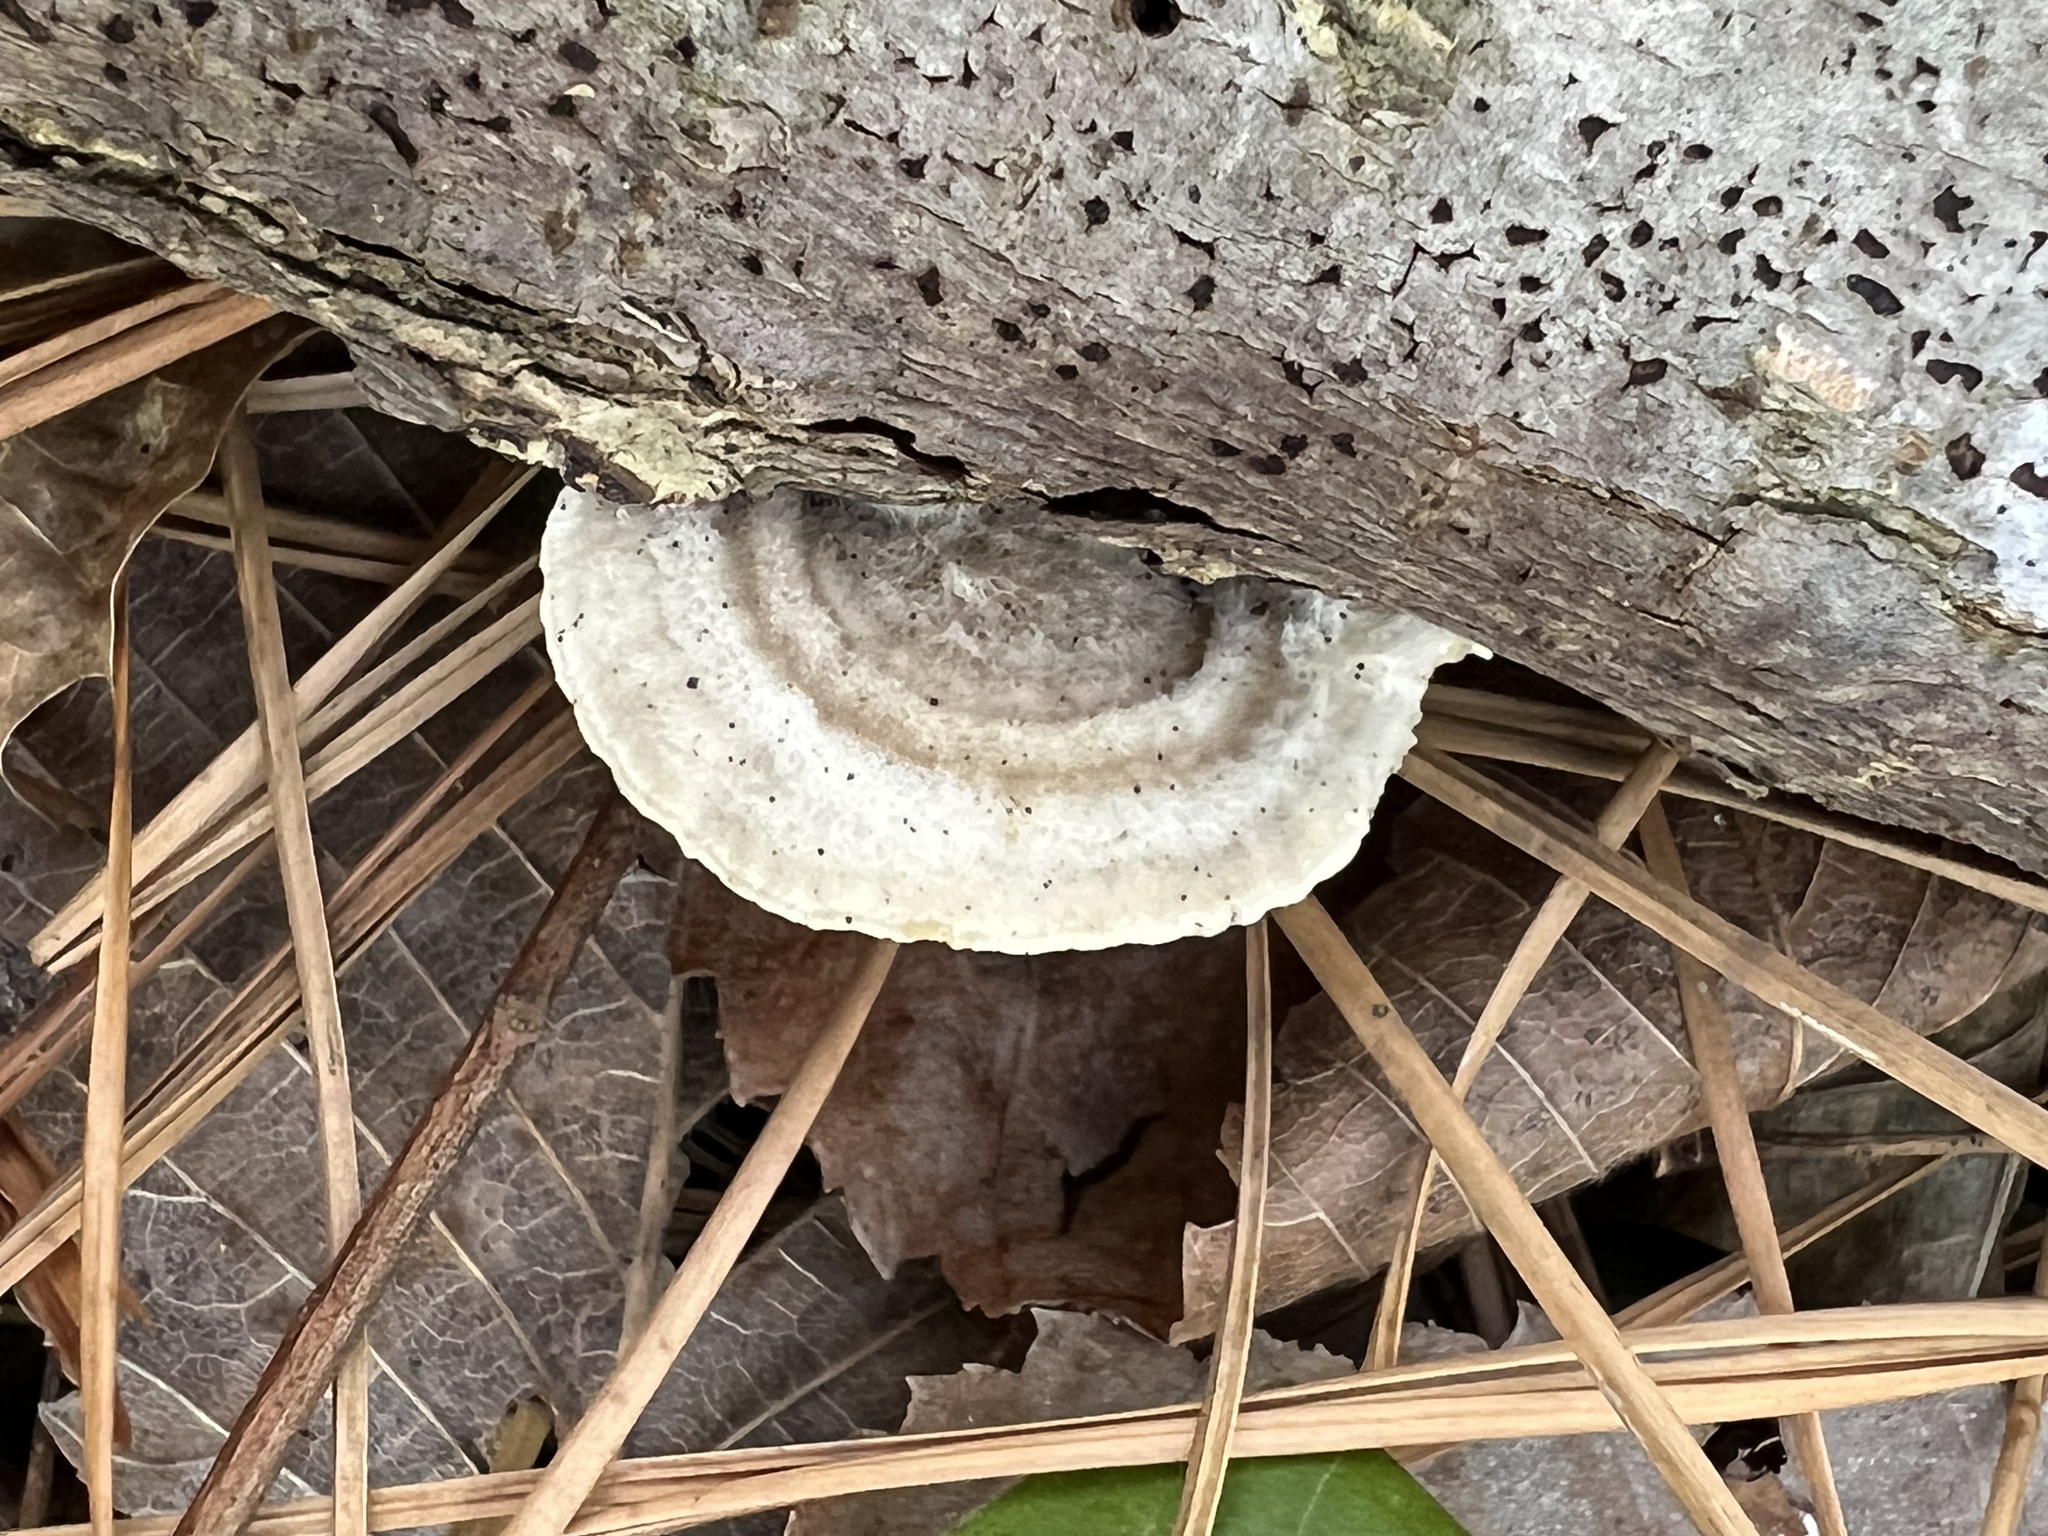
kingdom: Fungi
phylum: Basidiomycota
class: Agaricomycetes
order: Polyporales
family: Polyporaceae
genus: Lenzites
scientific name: Lenzites betulinus
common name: Birch mazegill
